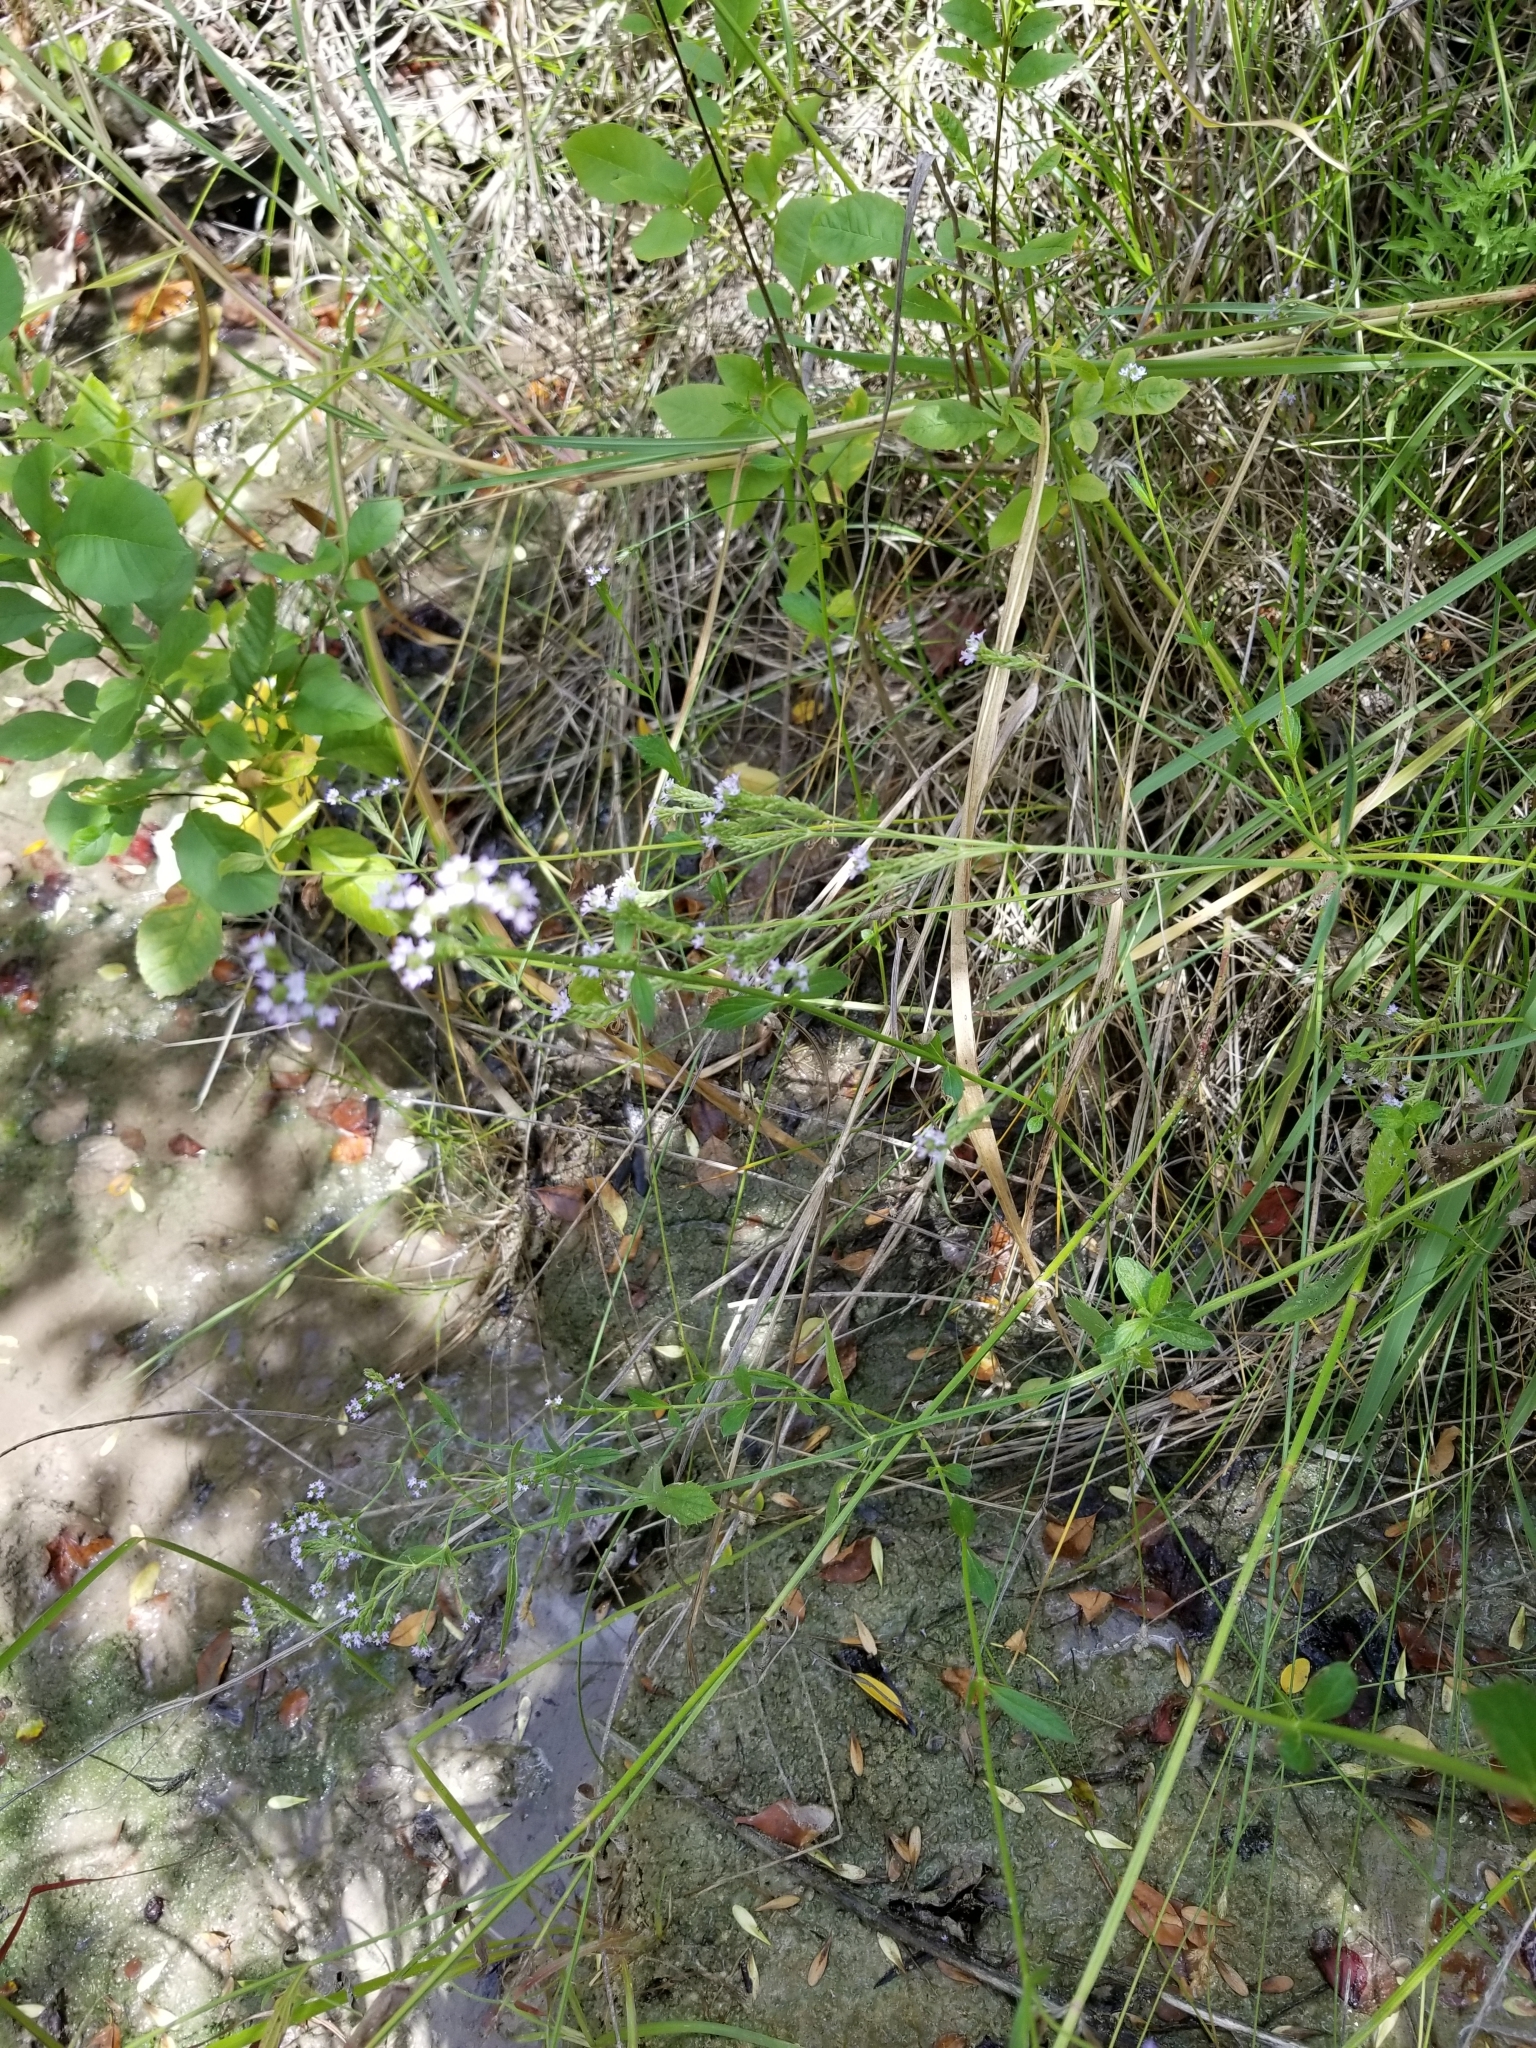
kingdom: Plantae
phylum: Tracheophyta
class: Magnoliopsida
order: Lamiales
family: Verbenaceae
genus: Verbena
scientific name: Verbena brasiliensis
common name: Brazilian vervain
